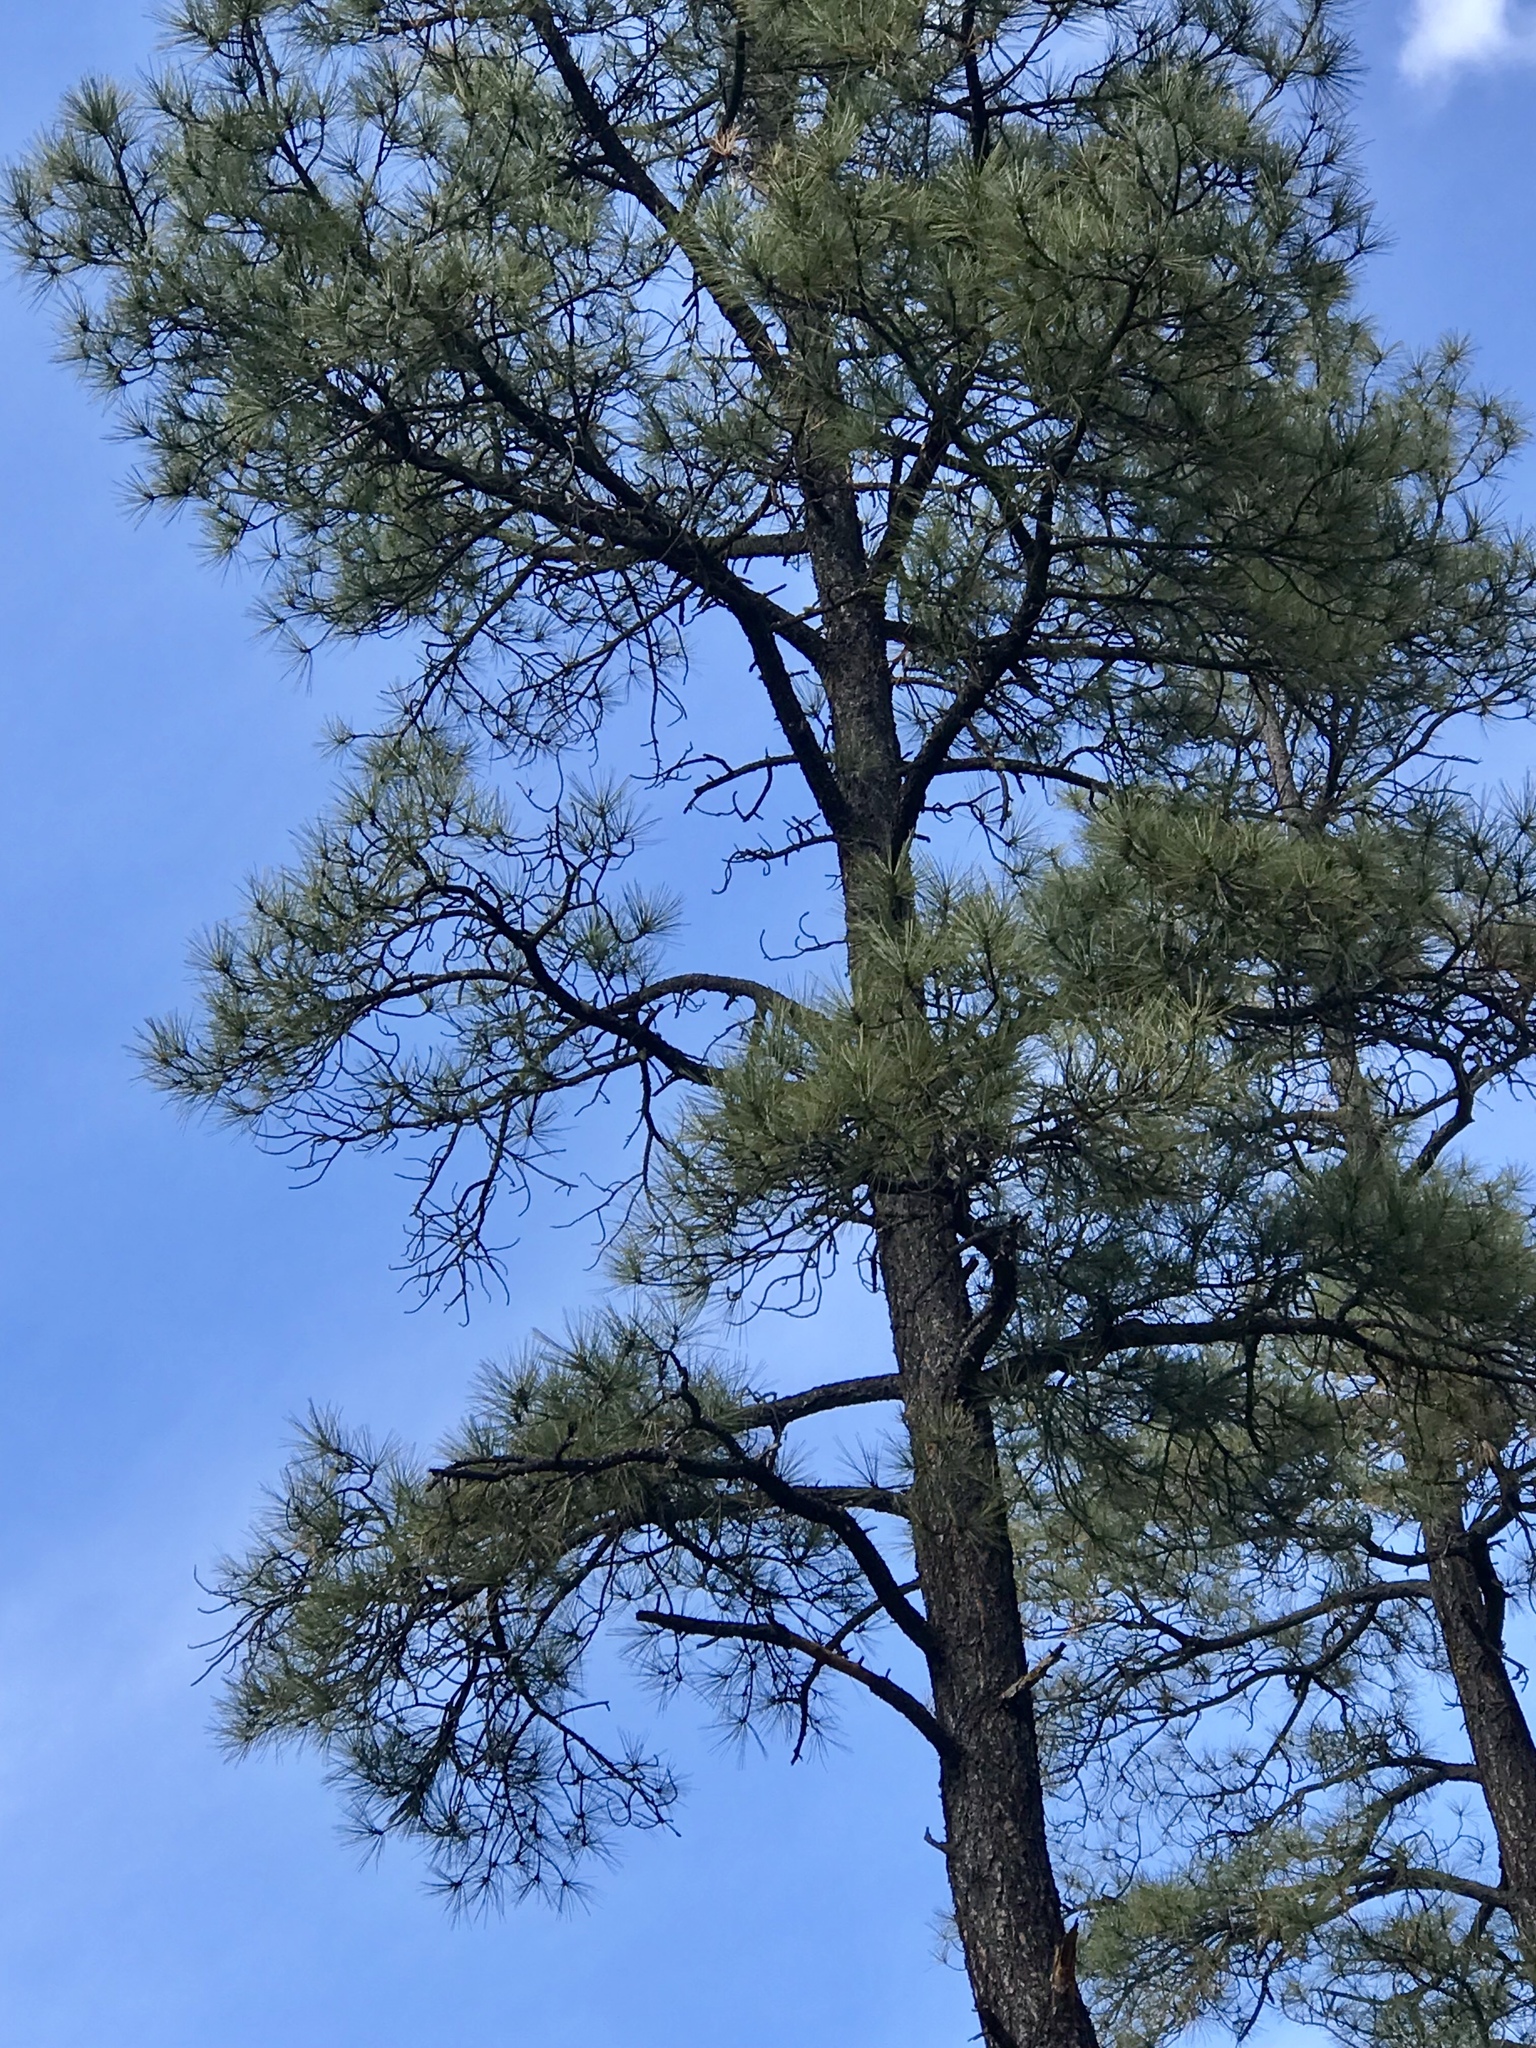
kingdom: Plantae
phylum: Tracheophyta
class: Pinopsida
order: Pinales
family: Pinaceae
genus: Pinus
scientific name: Pinus ponderosa
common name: Western yellow-pine
